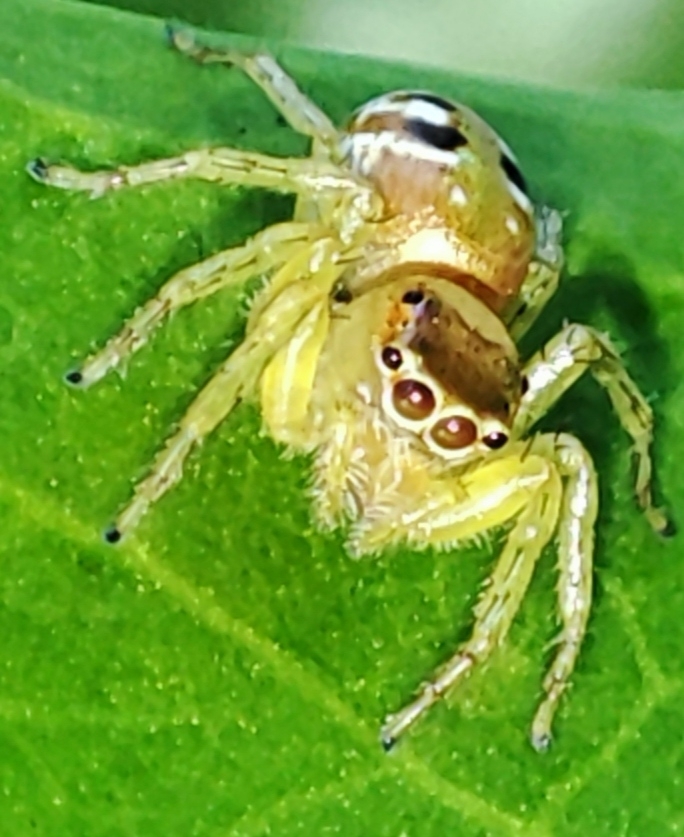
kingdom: Animalia
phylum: Arthropoda
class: Arachnida
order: Araneae
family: Salticidae
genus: Cytaea
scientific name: Cytaea dispalans
